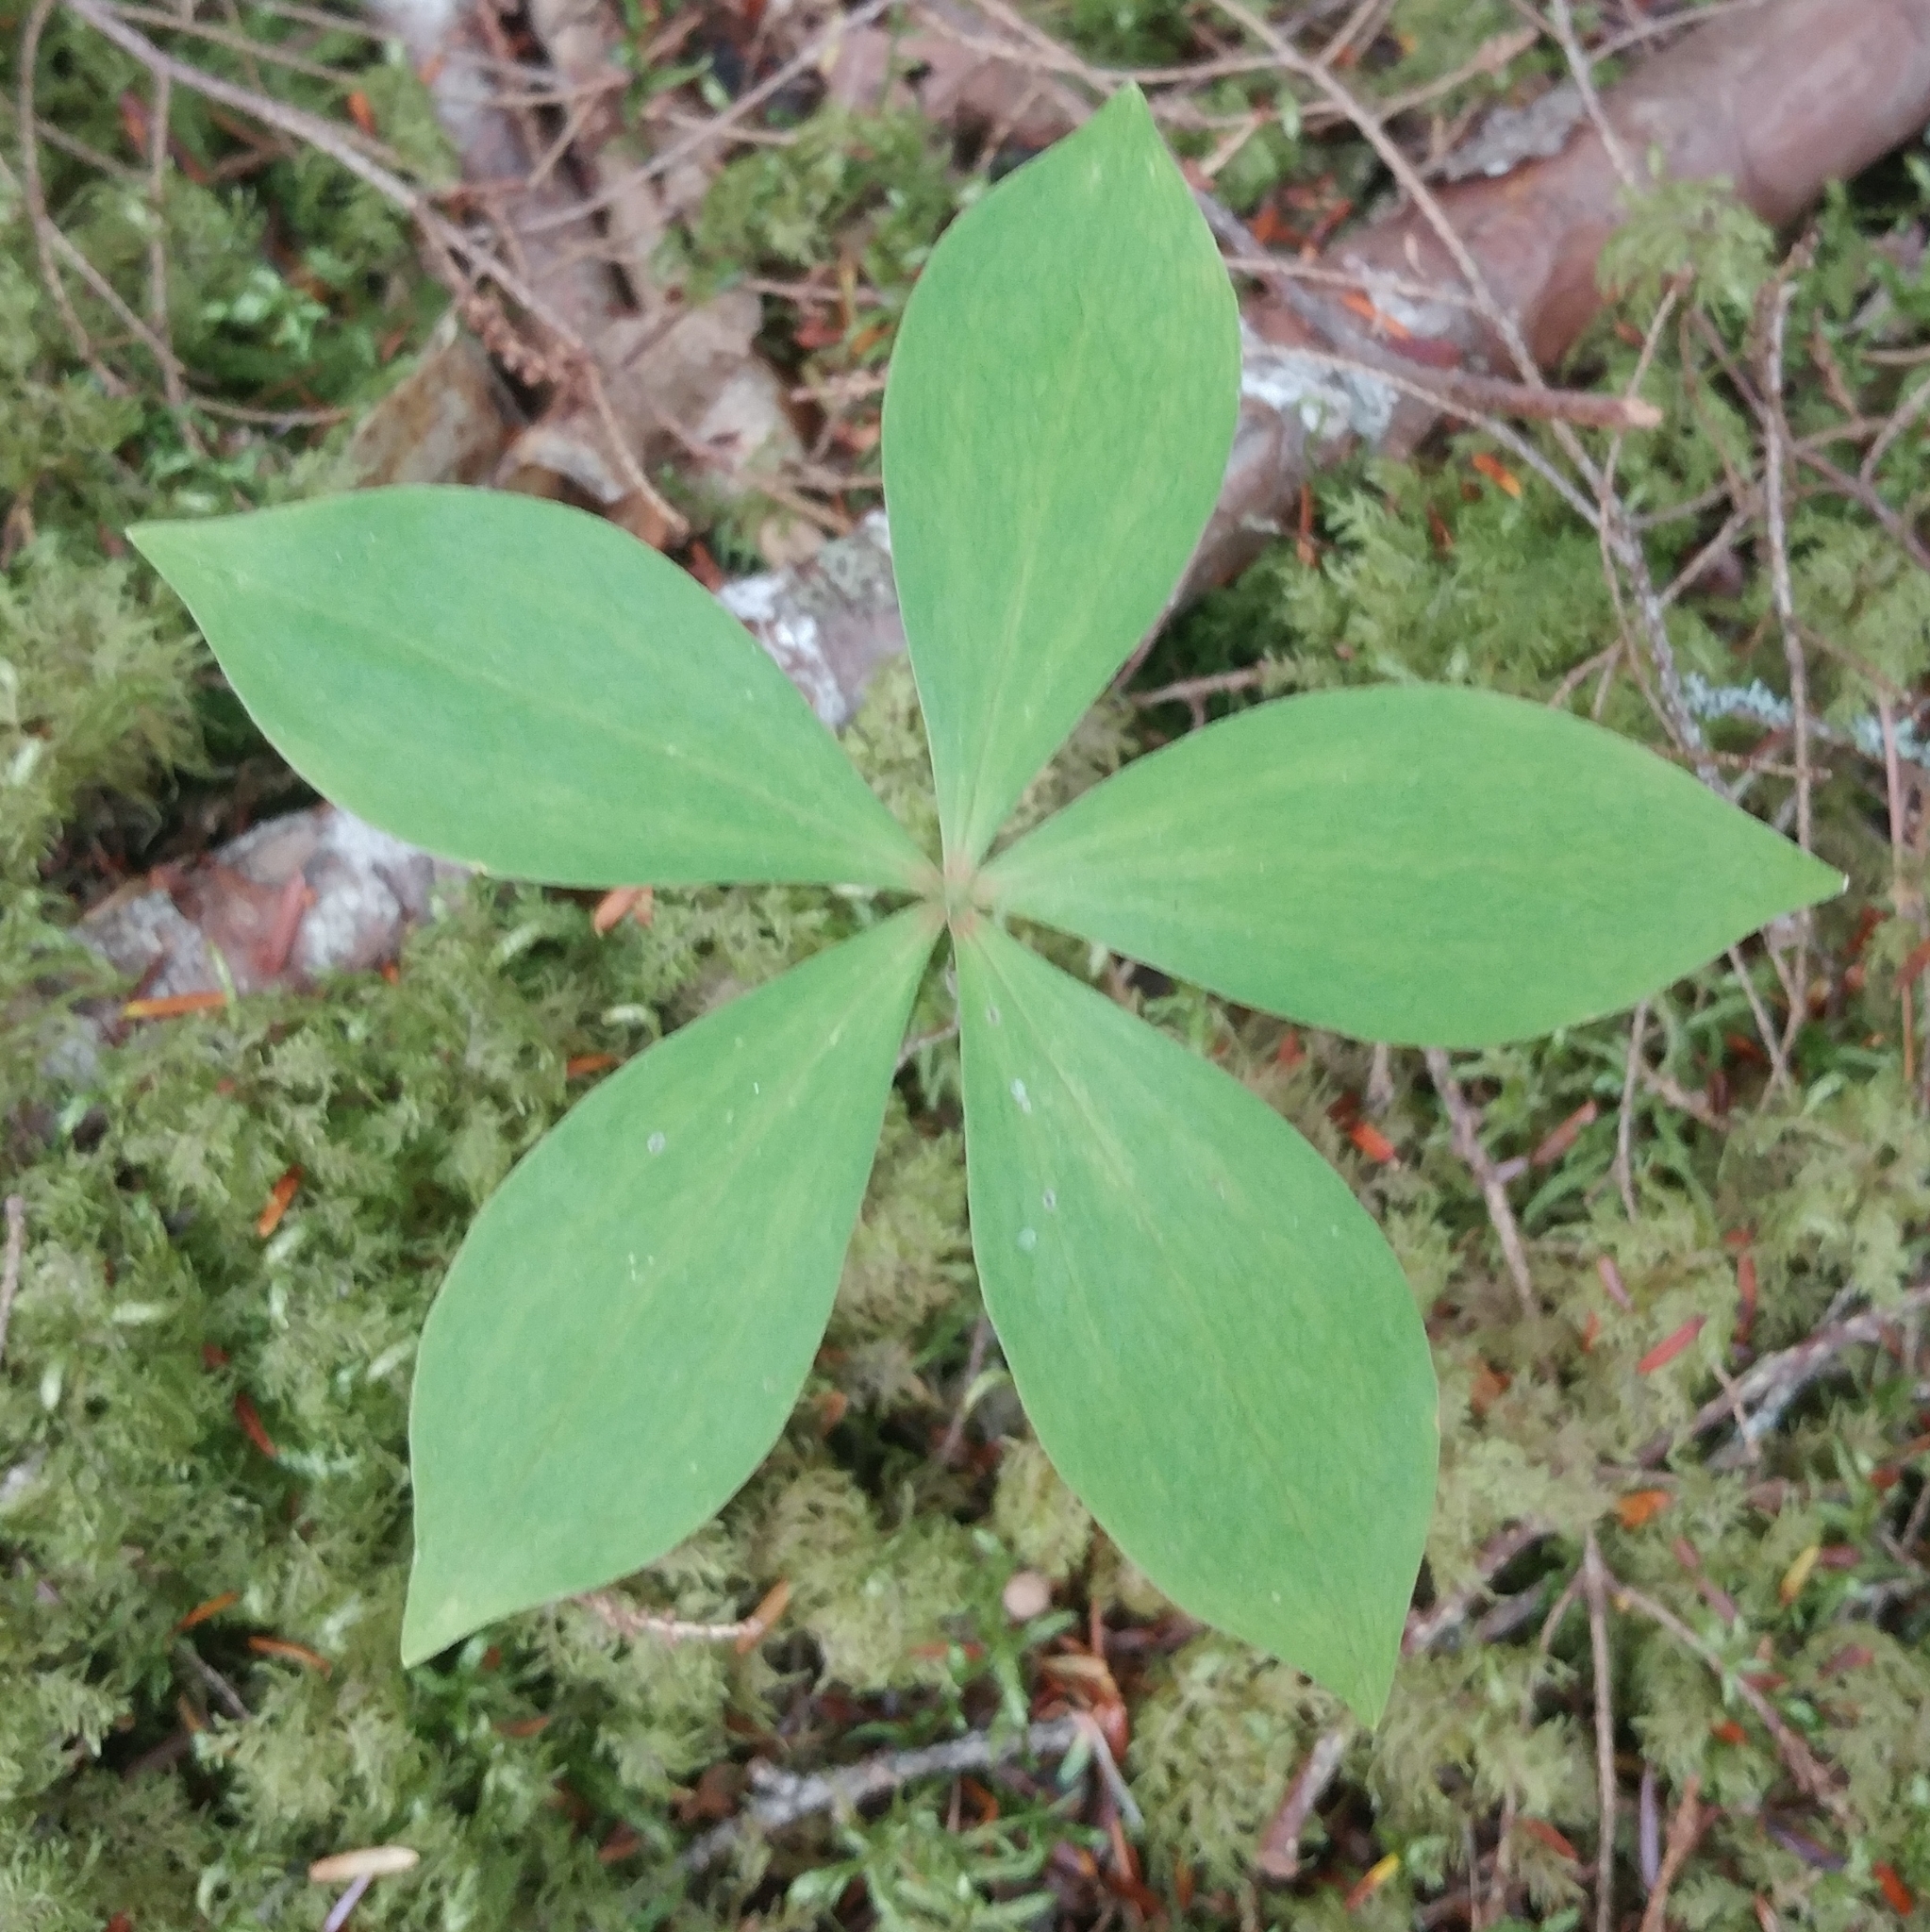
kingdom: Plantae
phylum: Tracheophyta
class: Liliopsida
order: Liliales
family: Liliaceae
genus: Medeola
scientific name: Medeola virginiana
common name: Indian cucumber-root
